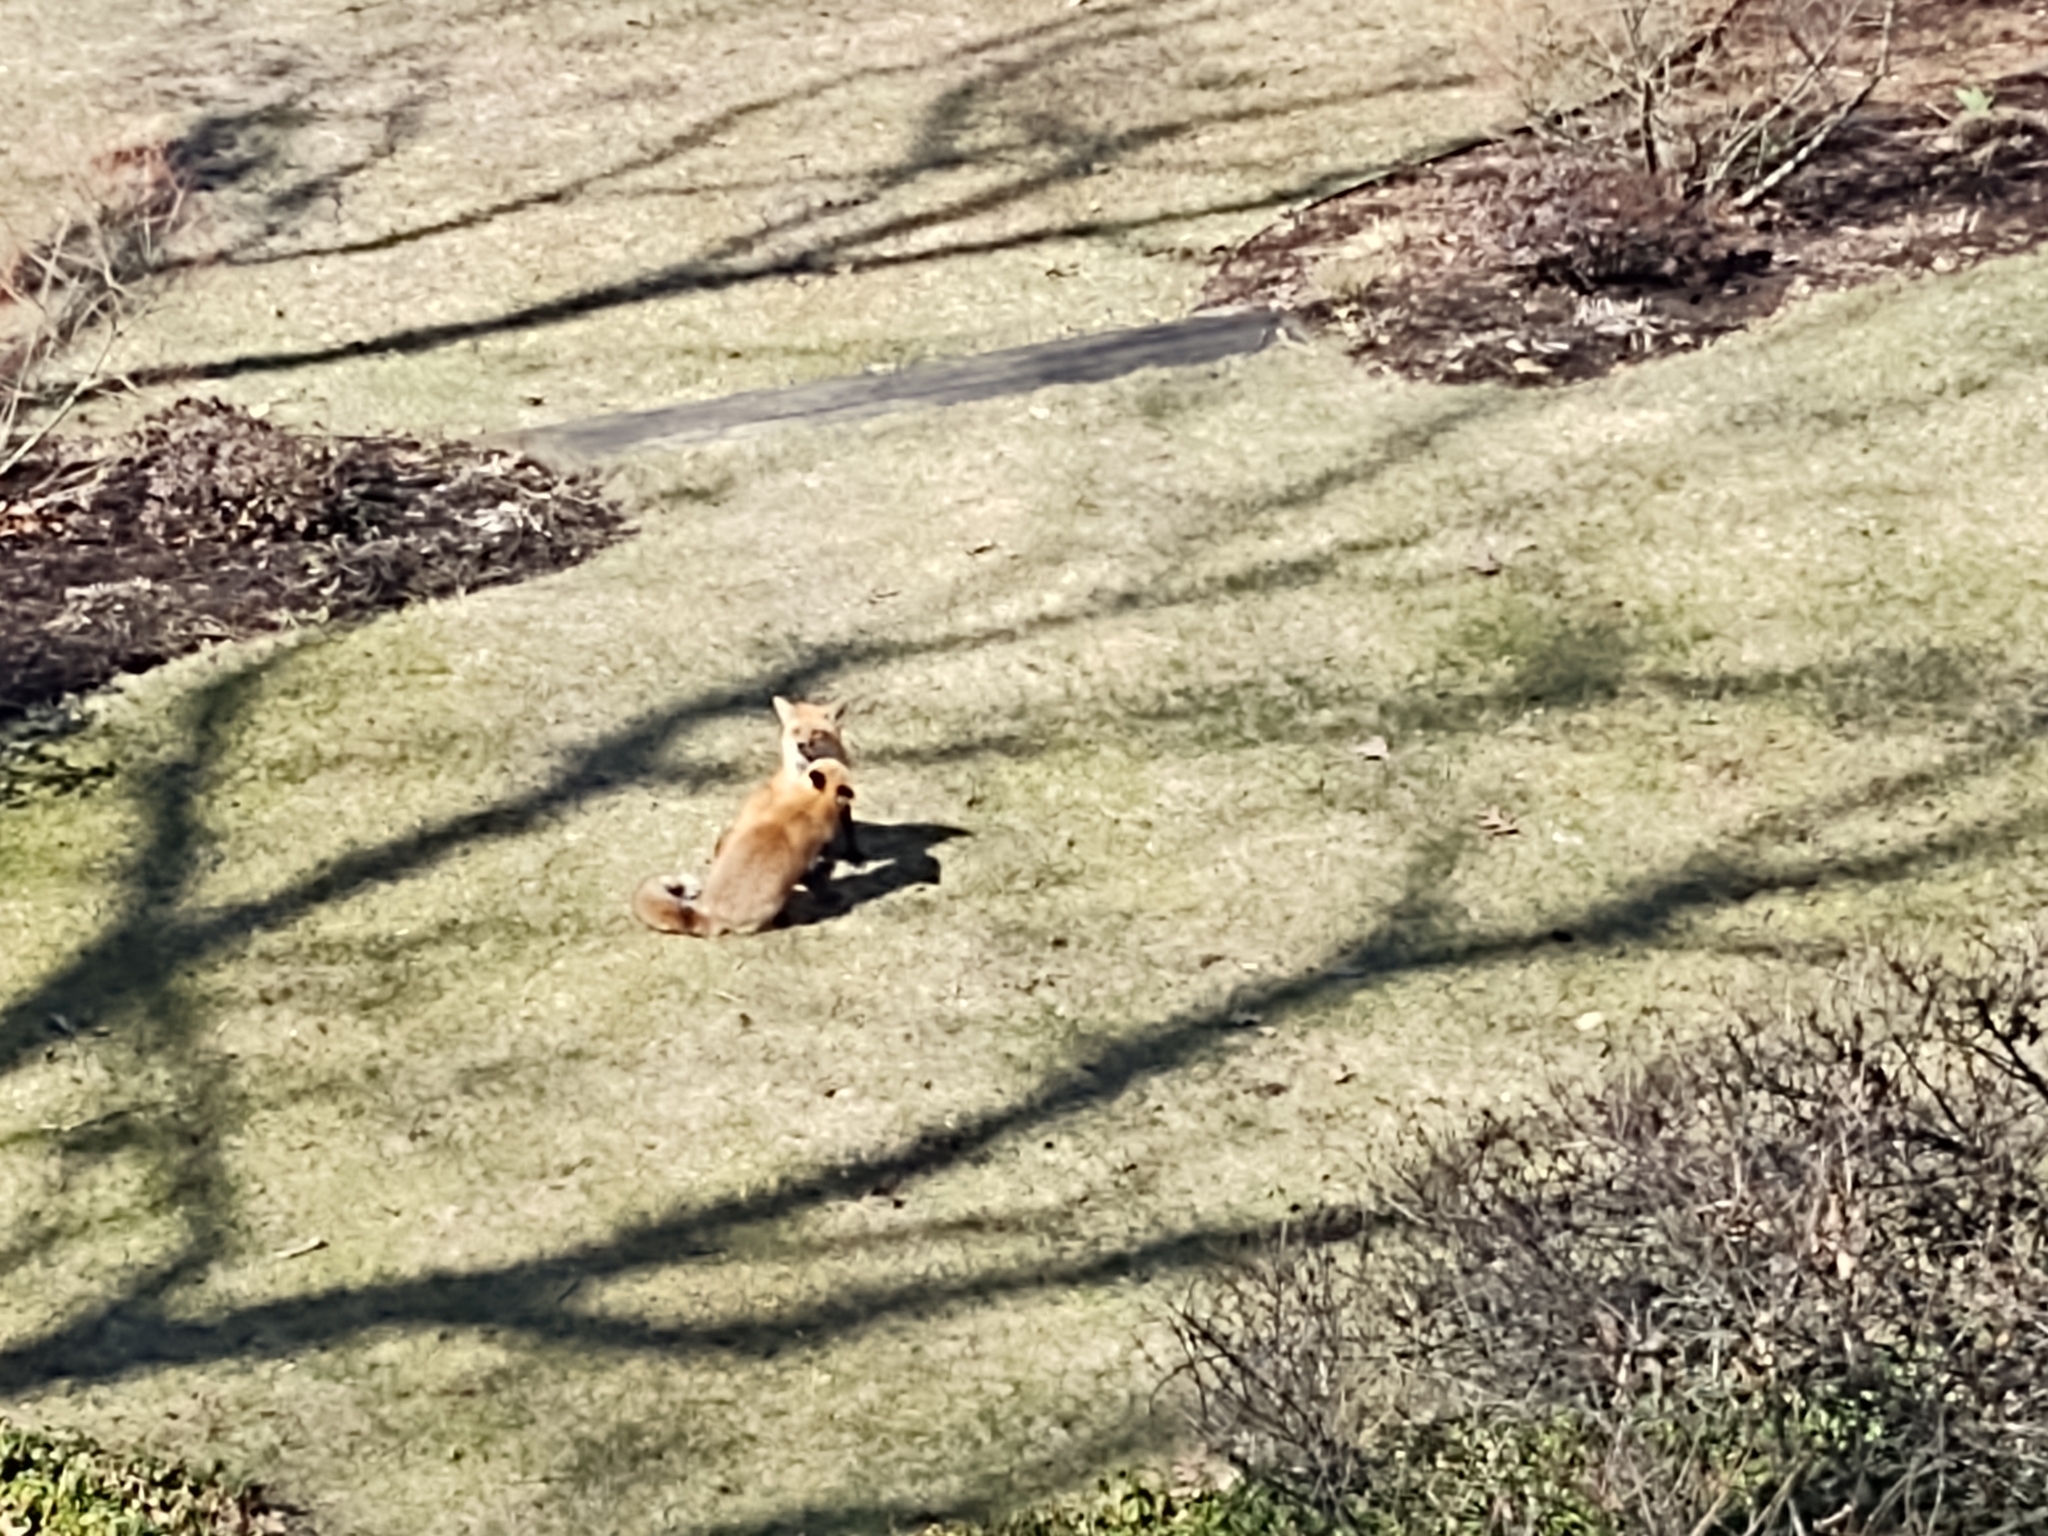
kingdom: Animalia
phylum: Chordata
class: Mammalia
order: Carnivora
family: Canidae
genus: Vulpes
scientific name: Vulpes vulpes
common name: Red fox
